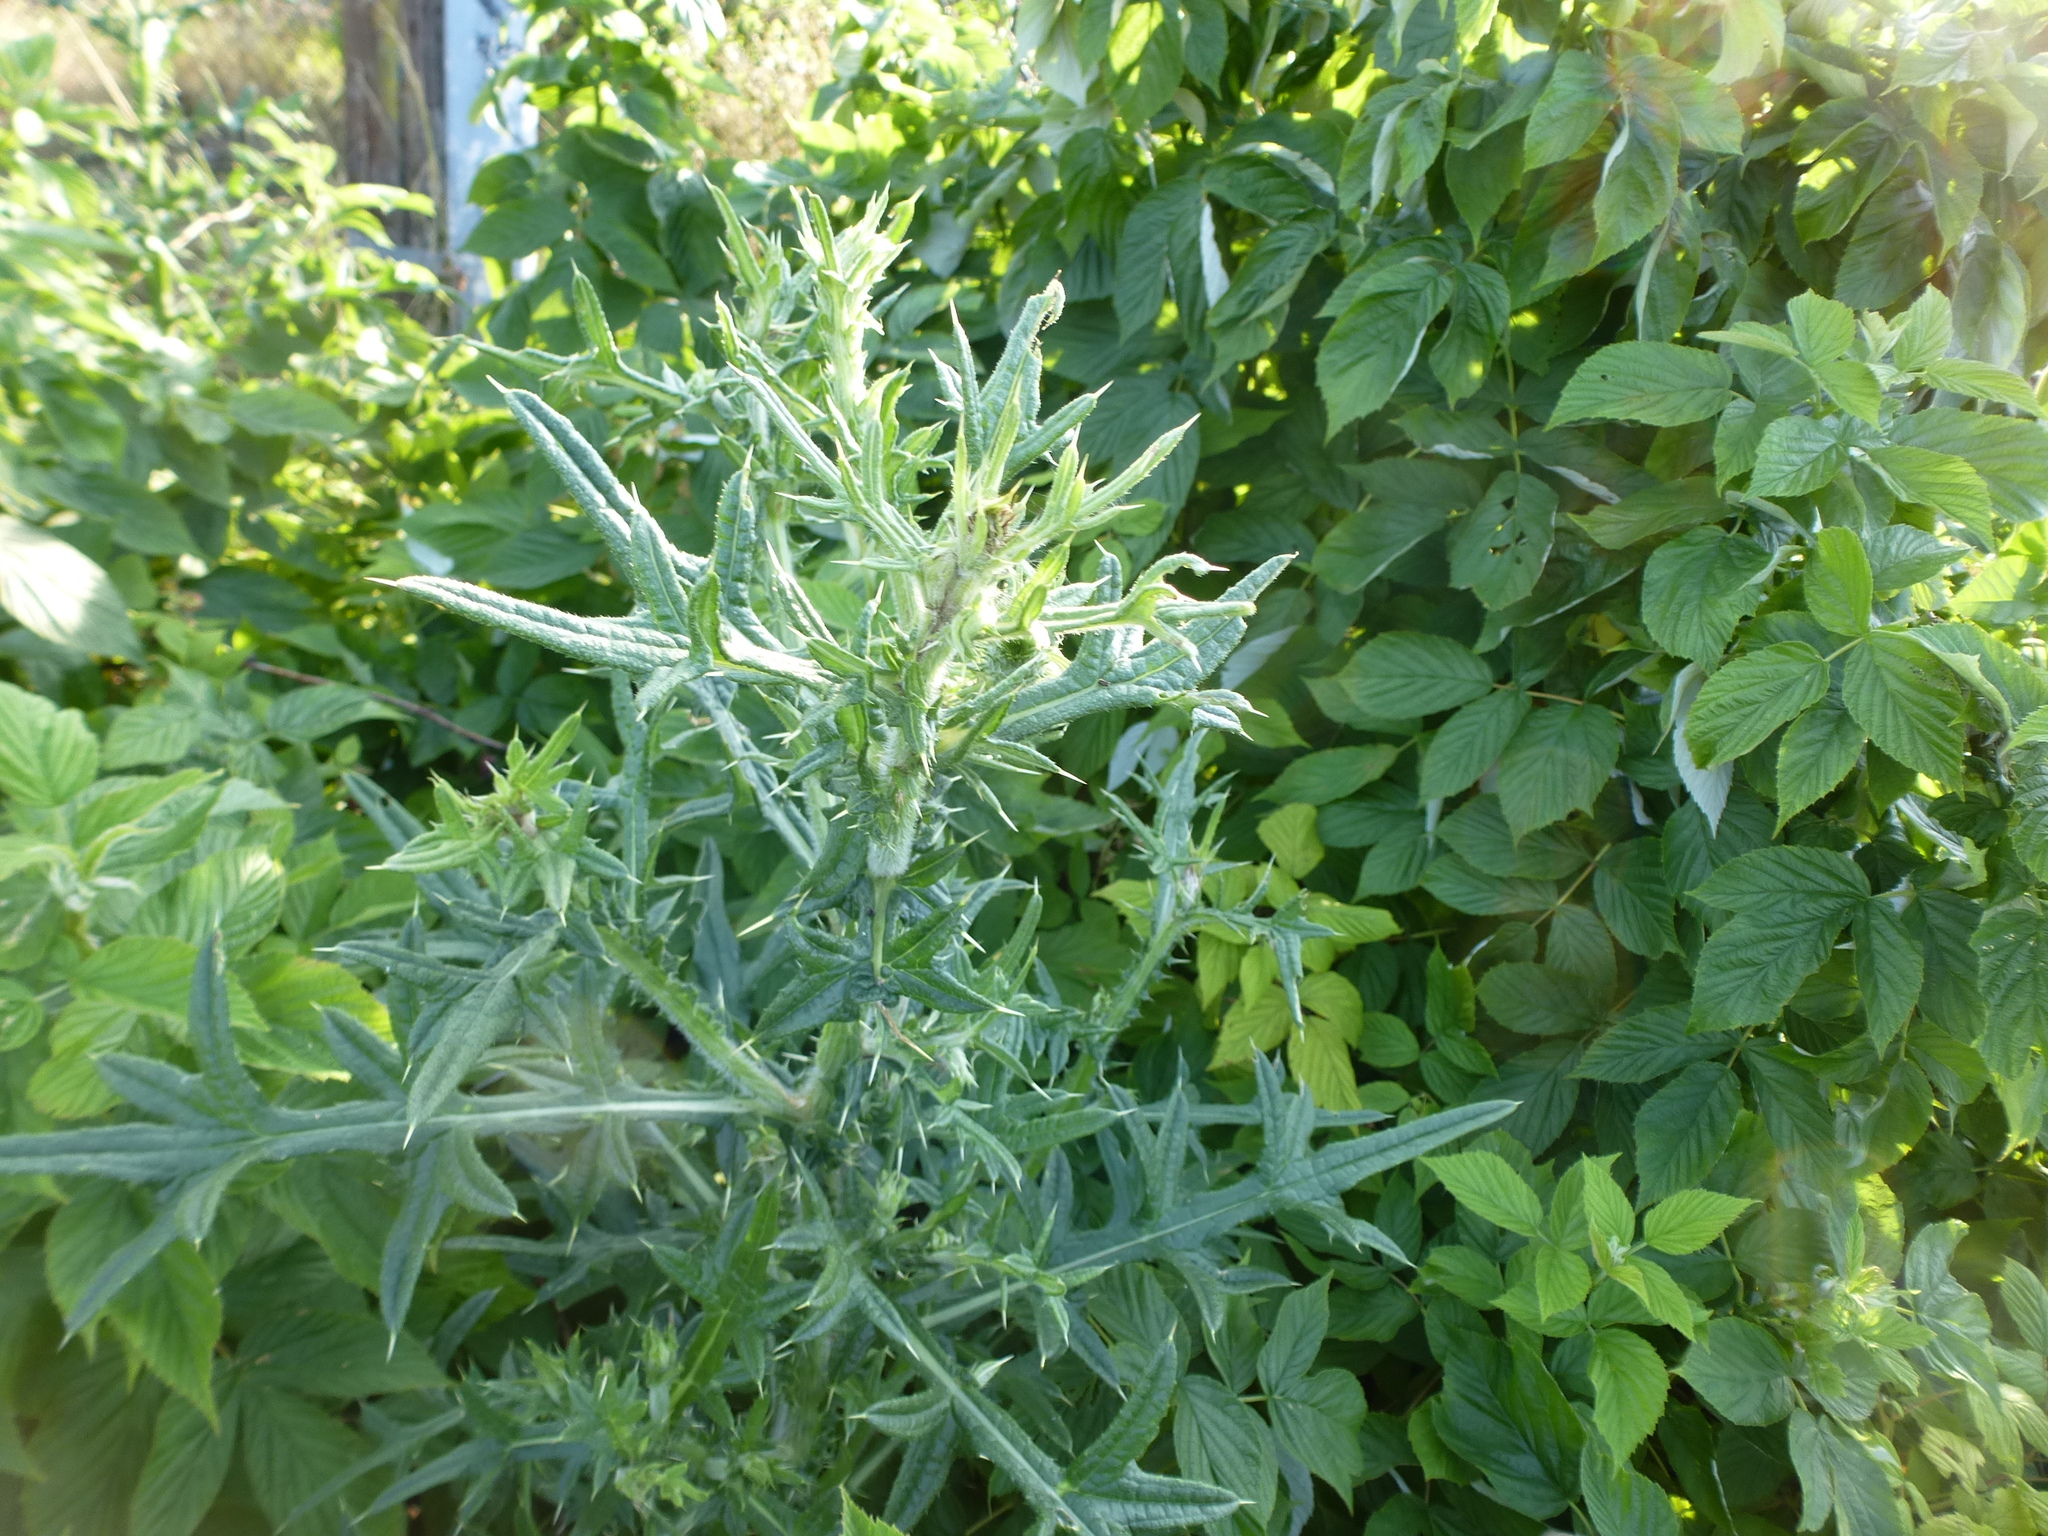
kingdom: Plantae
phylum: Tracheophyta
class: Magnoliopsida
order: Asterales
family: Asteraceae
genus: Cirsium
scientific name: Cirsium vulgare
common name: Bull thistle
